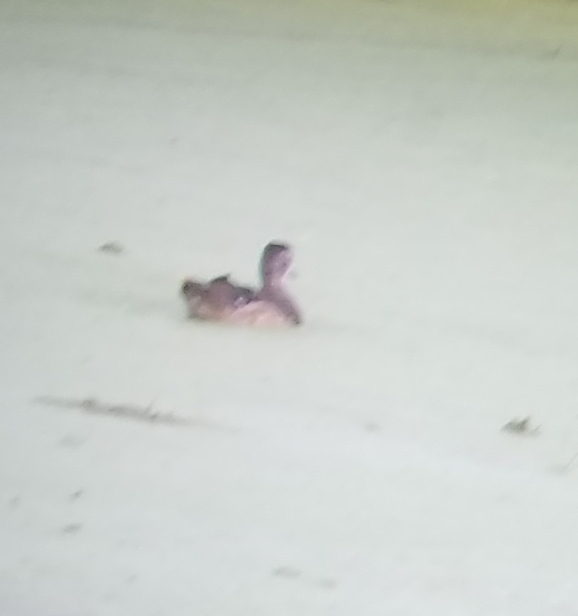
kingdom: Animalia
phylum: Chordata
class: Aves
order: Anseriformes
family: Anatidae
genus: Aix
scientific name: Aix sponsa
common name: Wood duck
